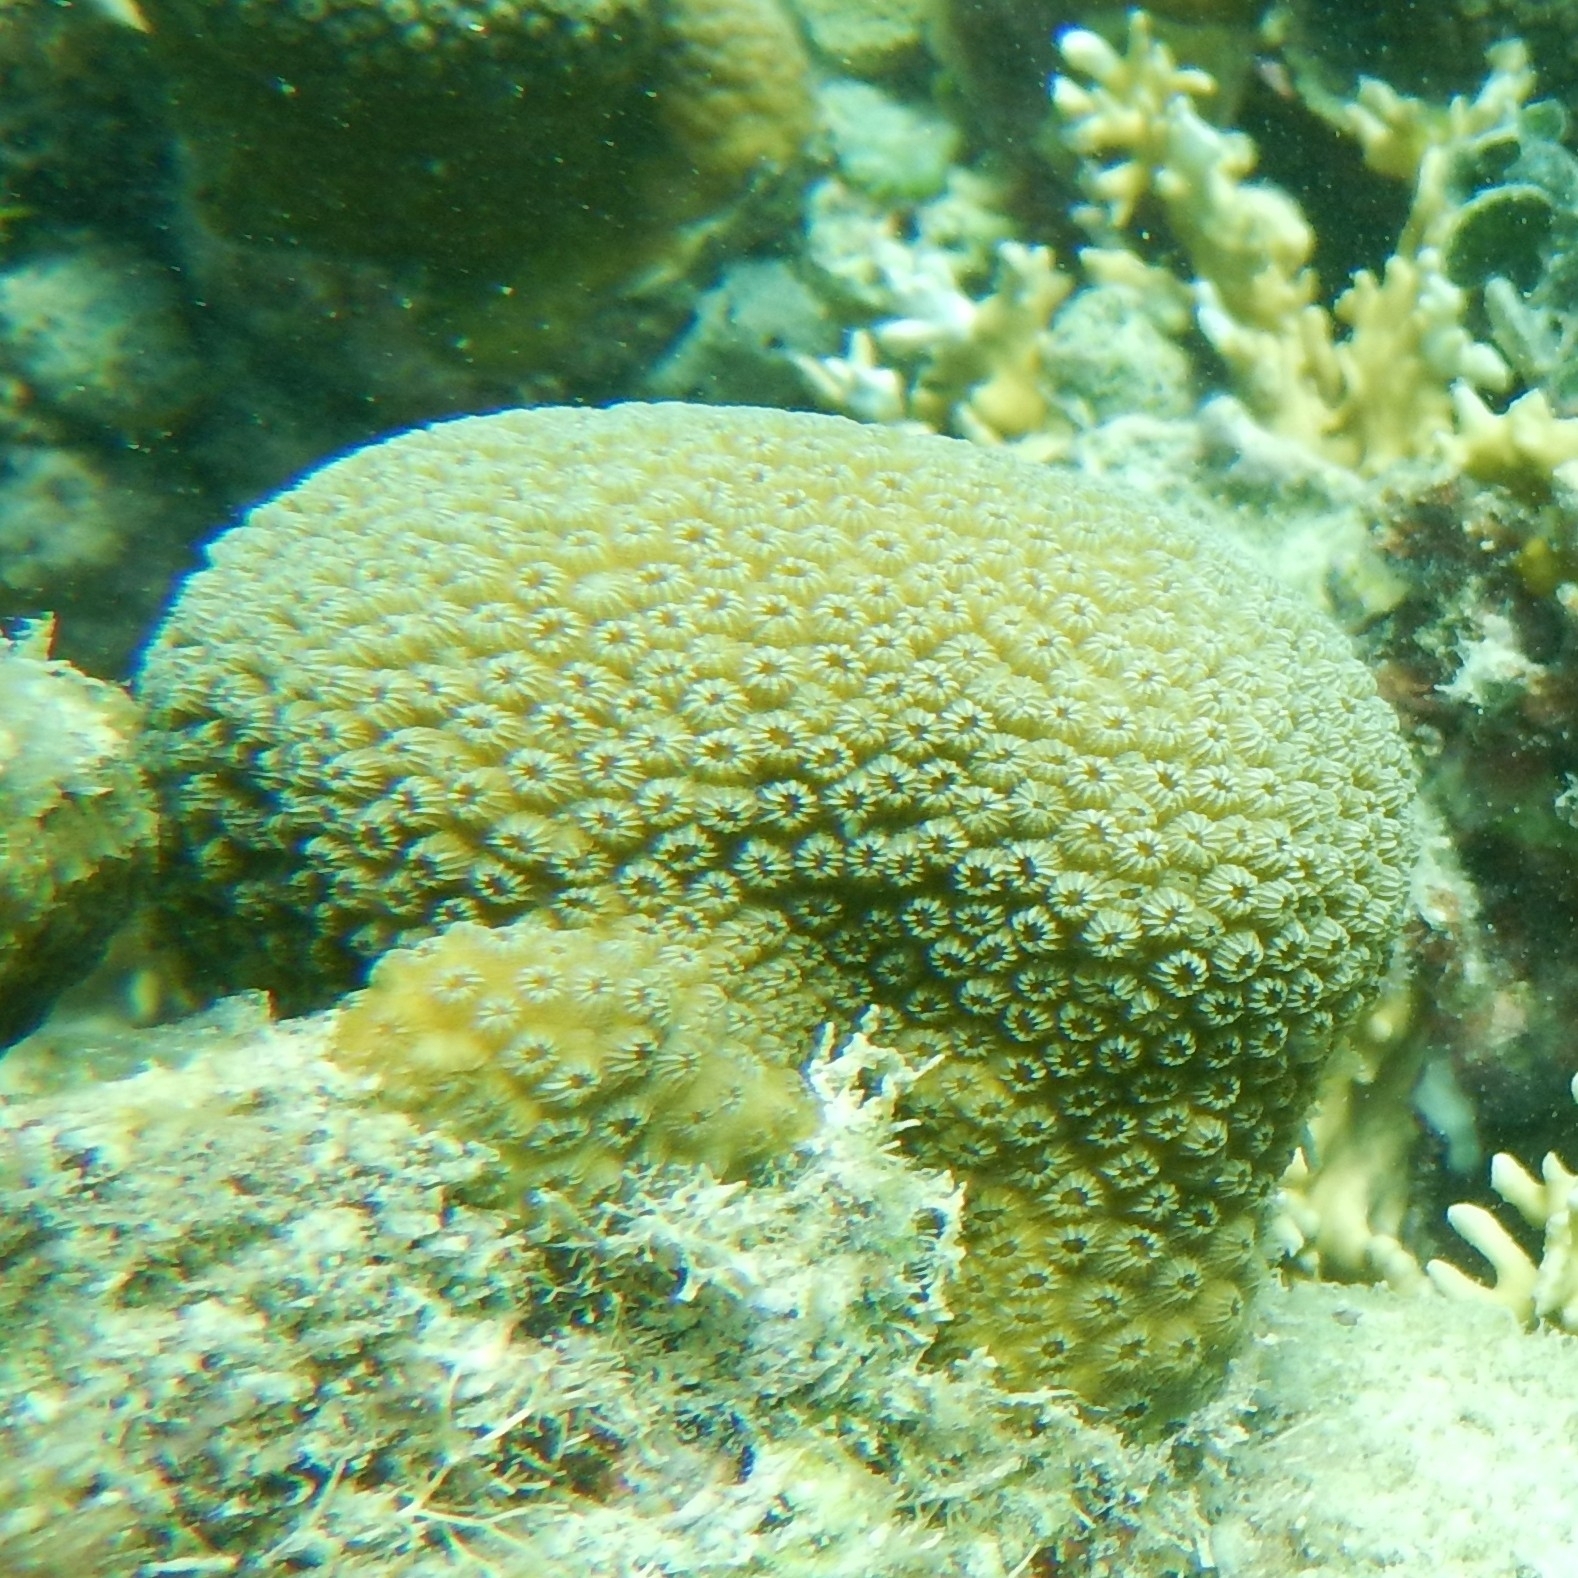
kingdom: Animalia
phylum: Cnidaria
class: Anthozoa
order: Scleractinia
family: Merulinidae
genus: Orbicella
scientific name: Orbicella annularis
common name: Boulder star coral
